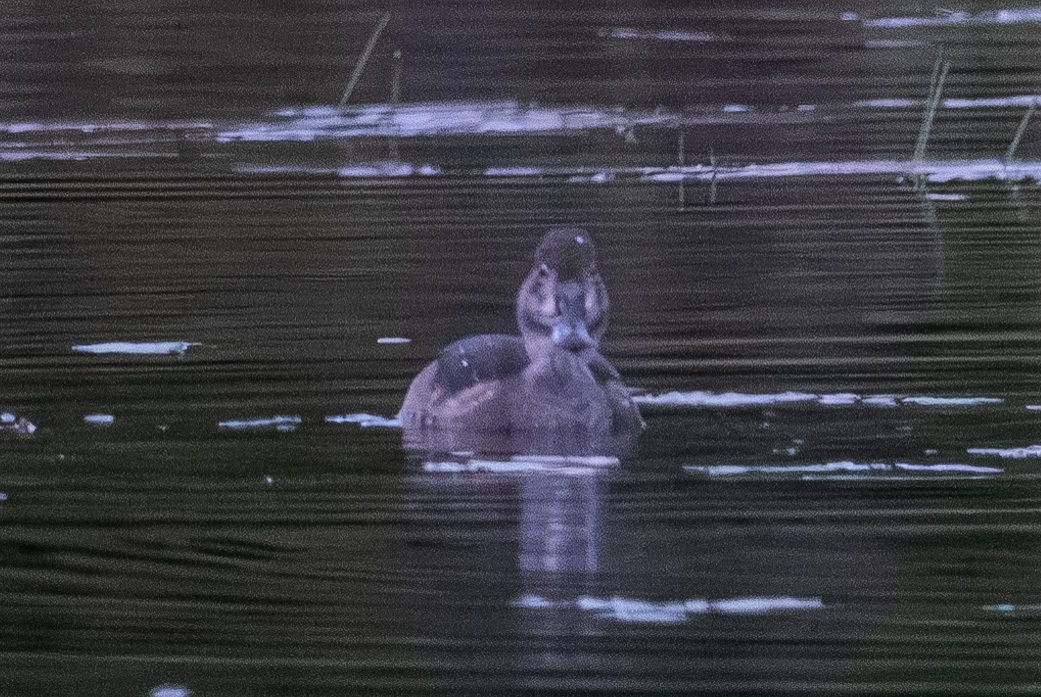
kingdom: Animalia
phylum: Chordata
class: Aves
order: Anseriformes
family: Anatidae
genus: Aythya
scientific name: Aythya collaris
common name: Ring-necked duck
